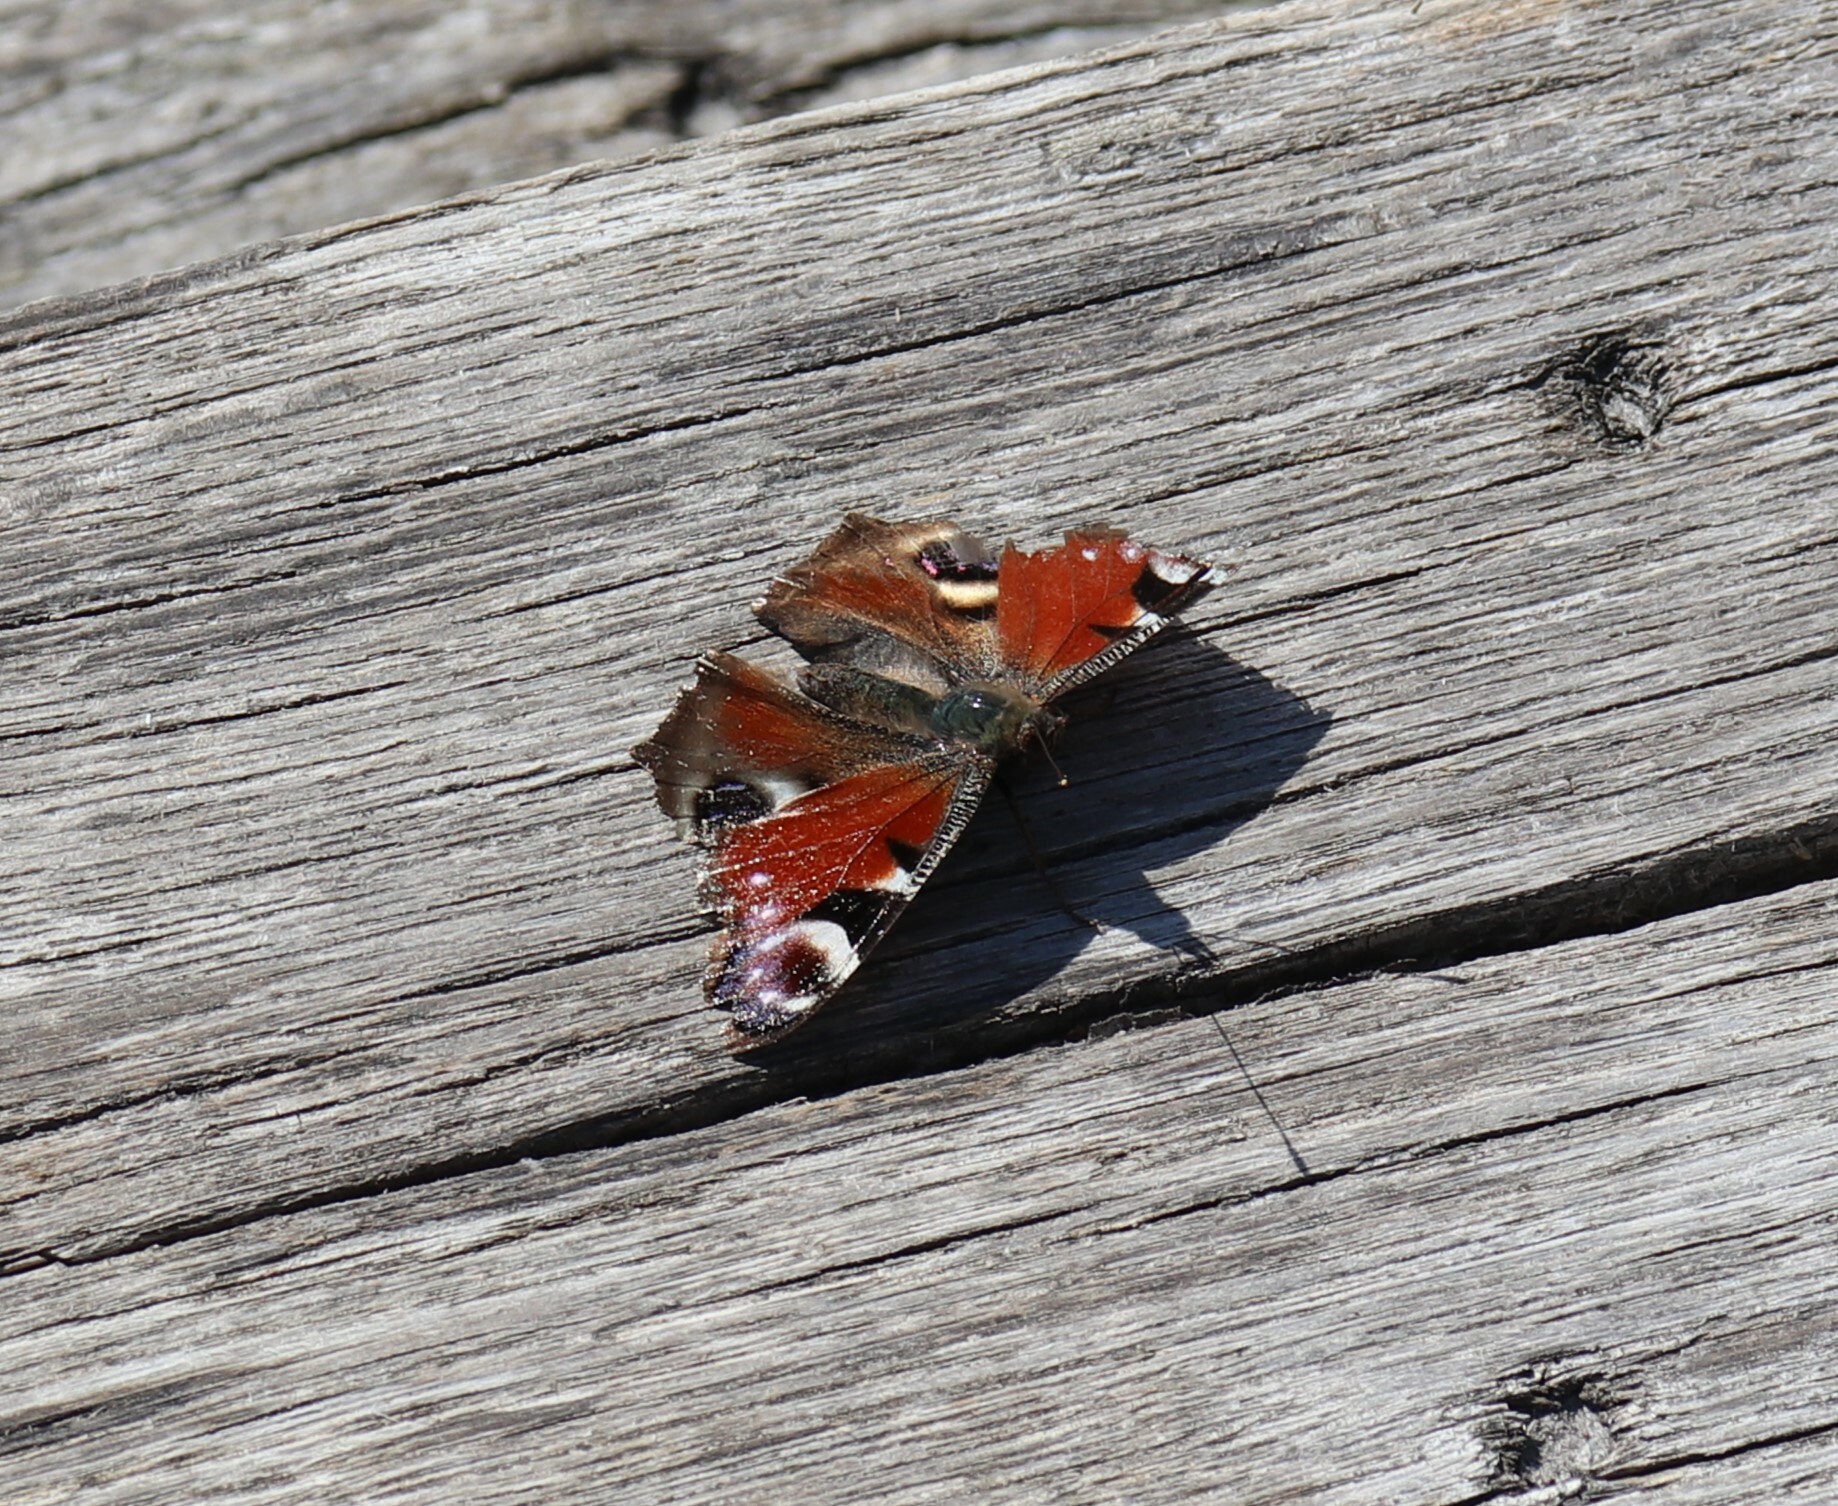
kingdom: Animalia
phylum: Arthropoda
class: Insecta
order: Lepidoptera
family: Nymphalidae
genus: Aglais
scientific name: Aglais io
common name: Peacock
